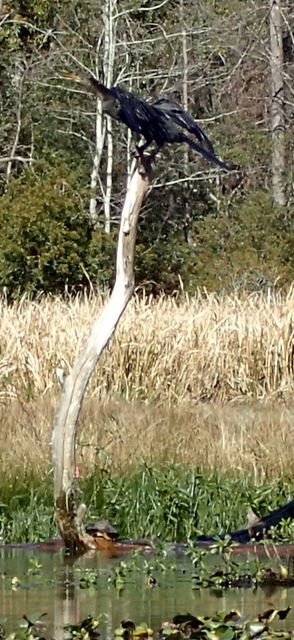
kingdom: Animalia
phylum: Chordata
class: Aves
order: Suliformes
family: Anhingidae
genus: Anhinga
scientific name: Anhinga anhinga
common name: Anhinga
